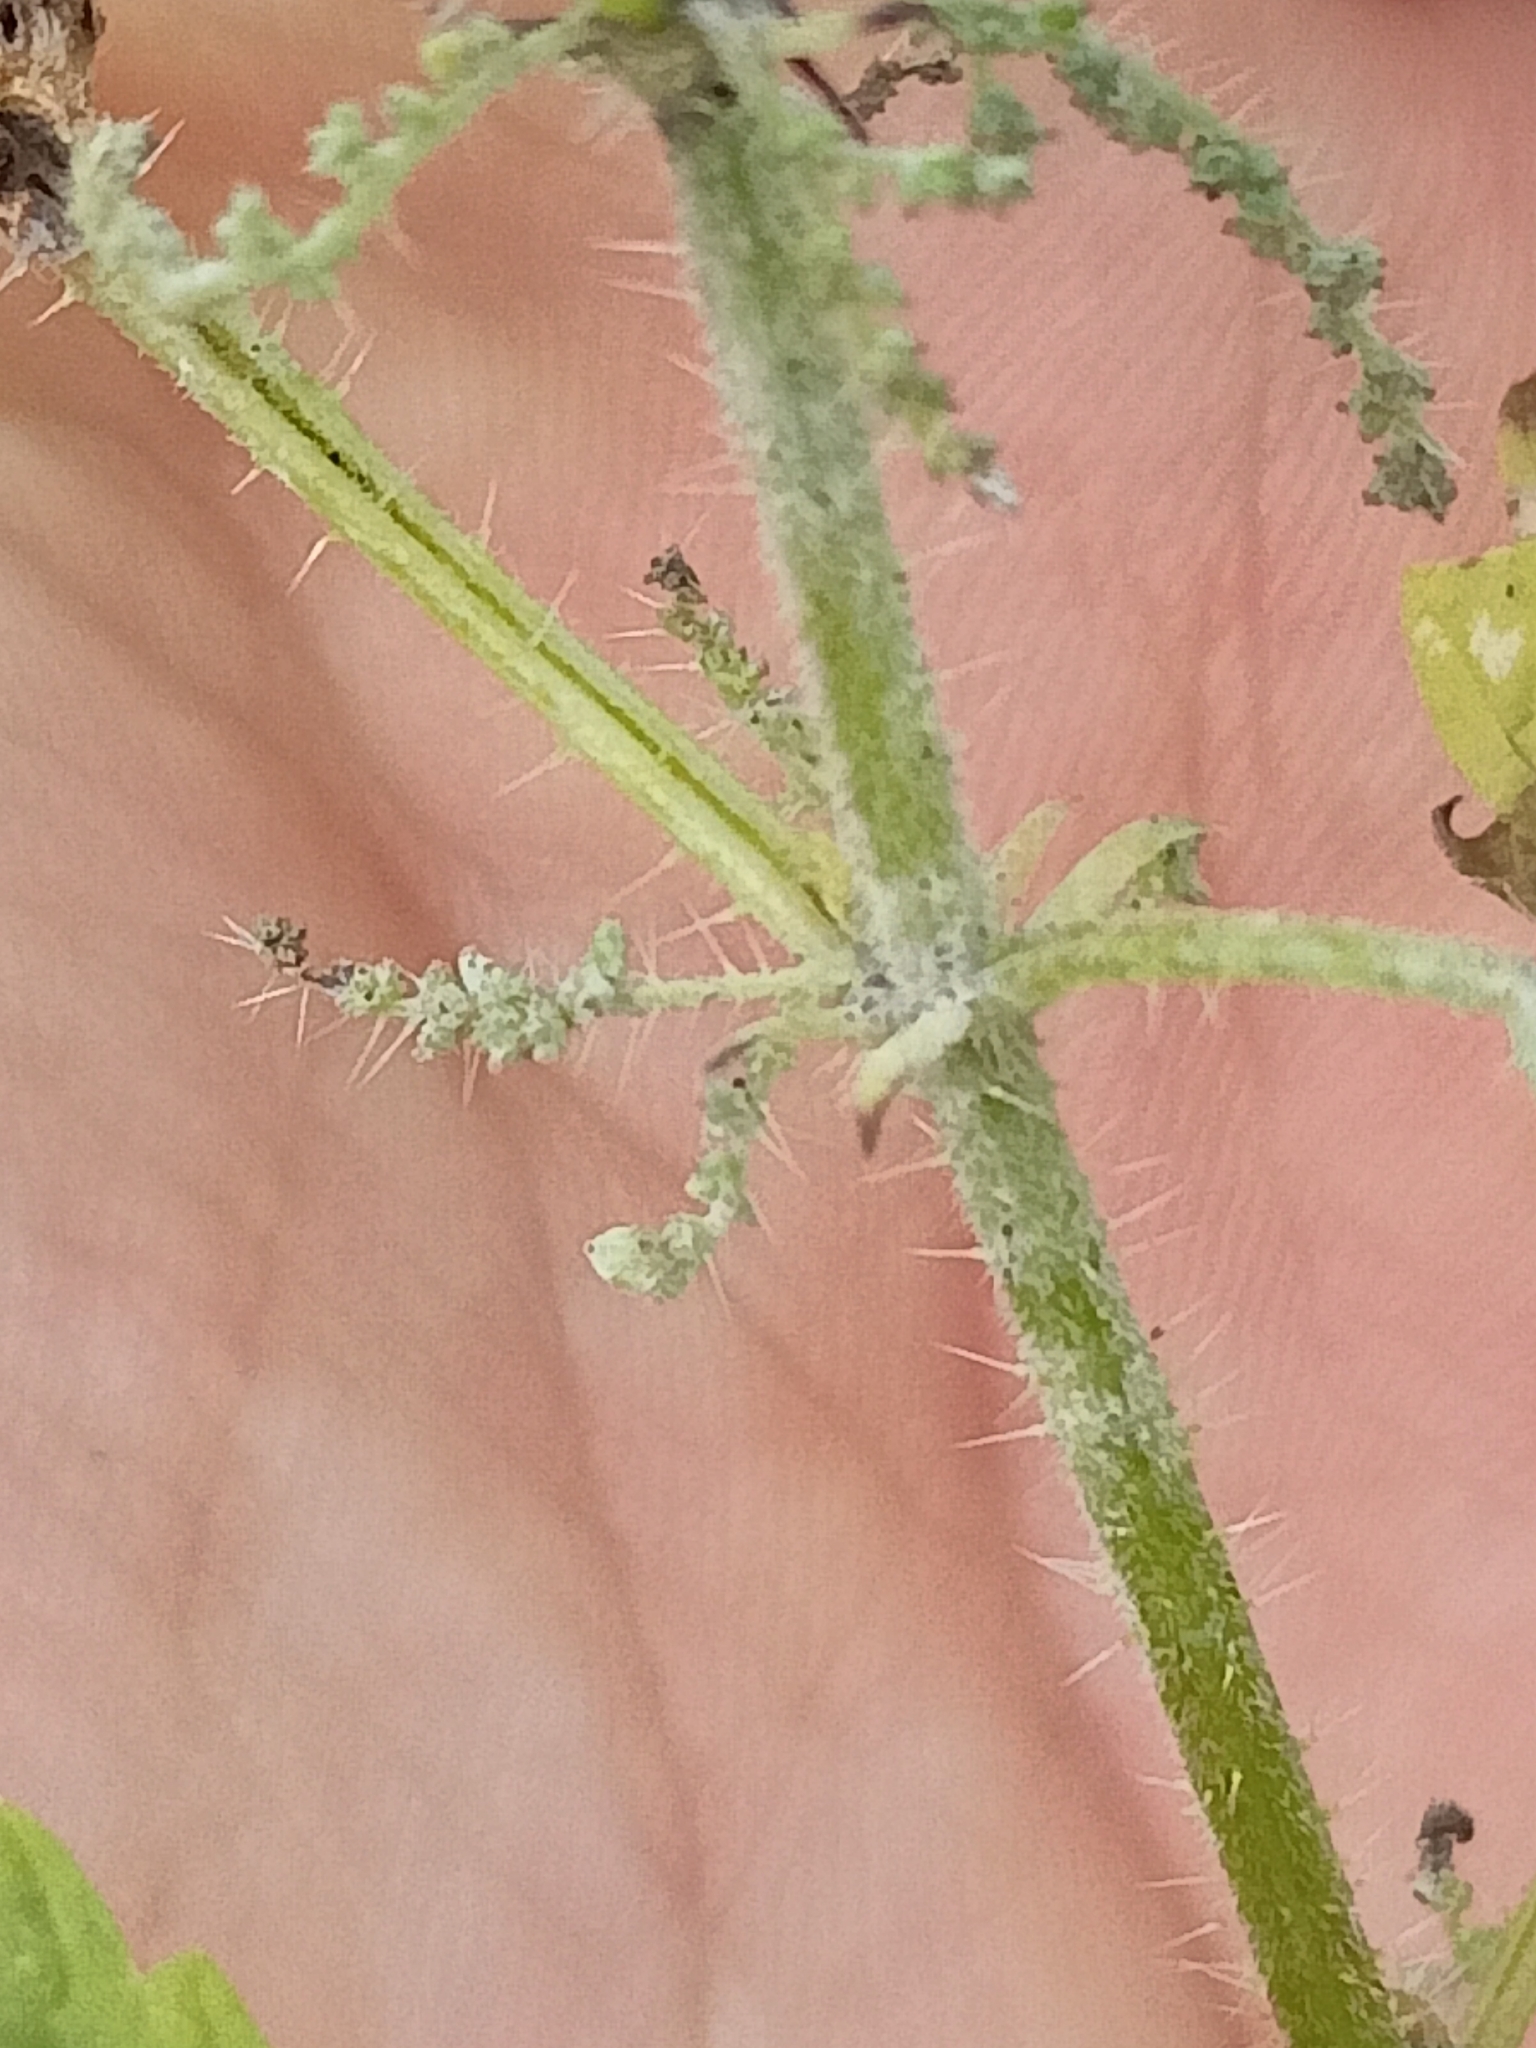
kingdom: Plantae
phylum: Tracheophyta
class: Magnoliopsida
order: Rosales
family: Urticaceae
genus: Urtica
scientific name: Urtica dioica
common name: Common nettle
